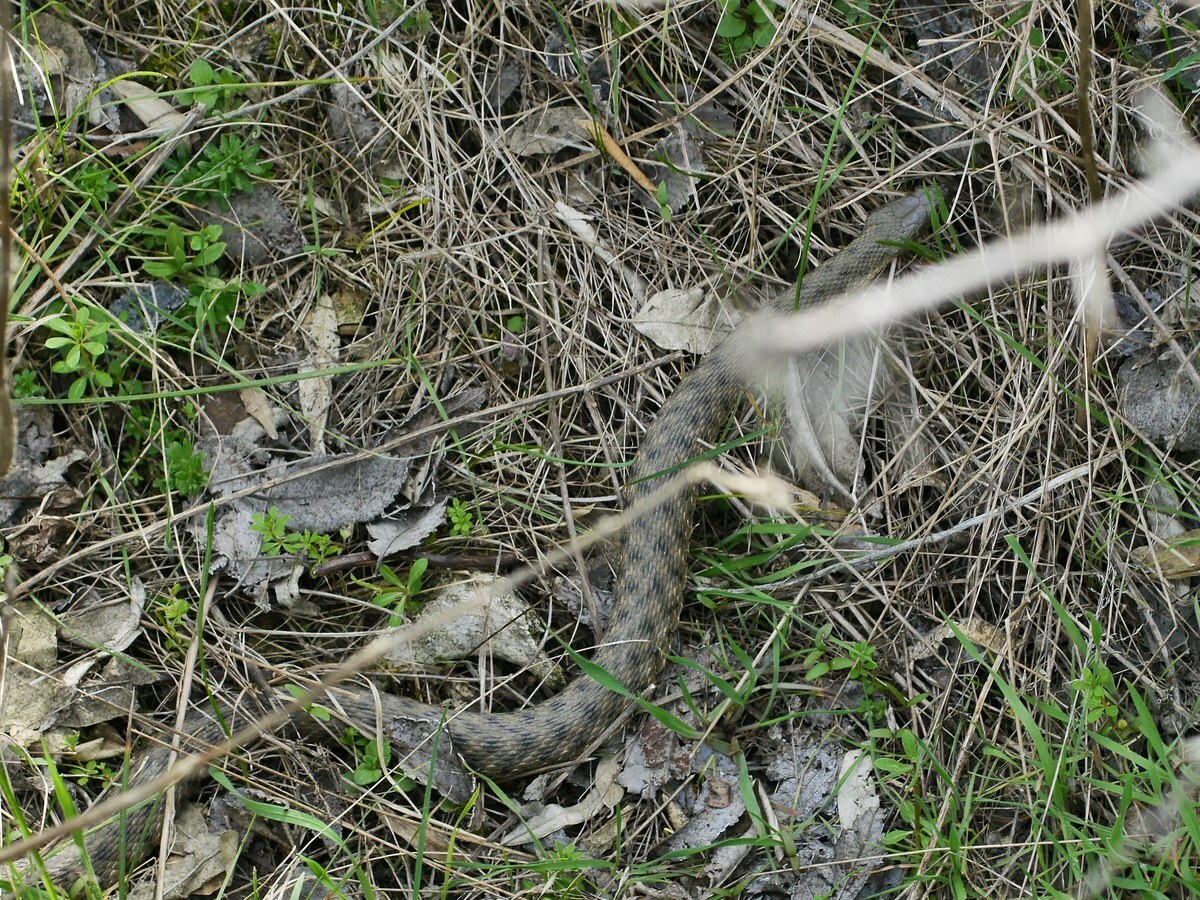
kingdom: Animalia
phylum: Chordata
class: Squamata
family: Colubridae
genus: Natrix
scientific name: Natrix tessellata
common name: Dice snake
